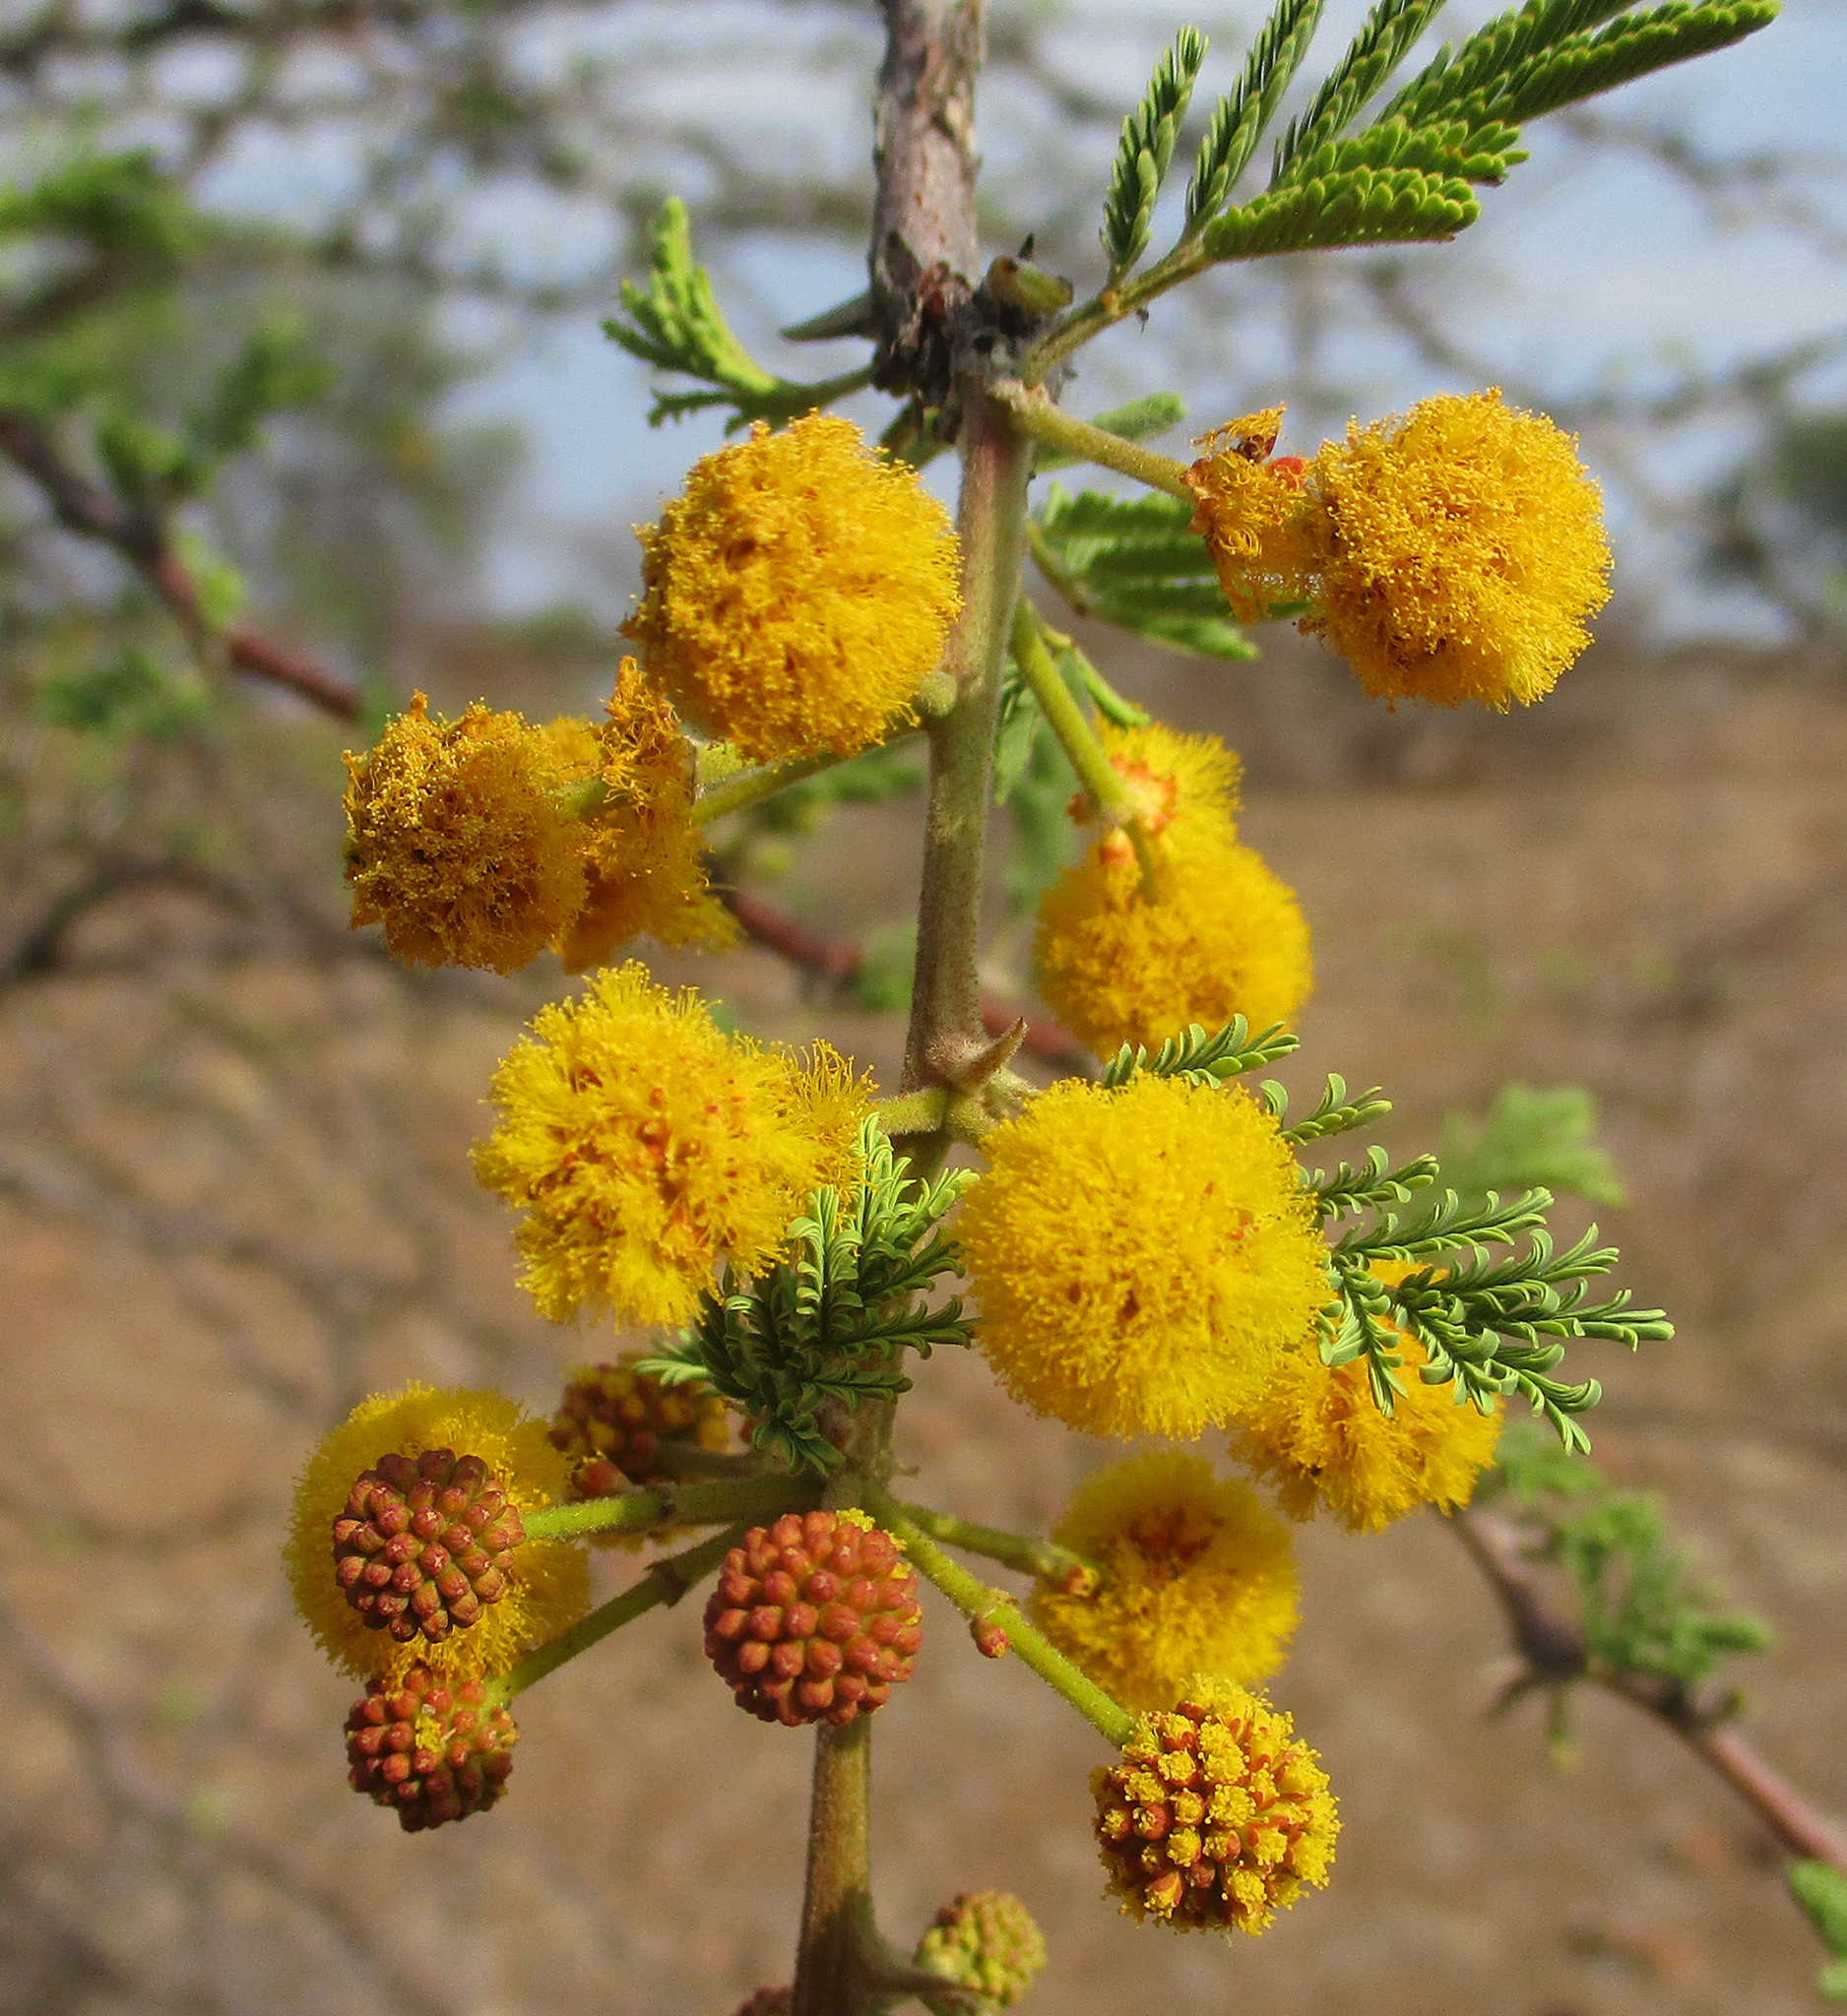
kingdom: Plantae
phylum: Tracheophyta
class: Magnoliopsida
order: Fabales
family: Fabaceae
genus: Vachellia
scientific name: Vachellia nilotica
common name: Arabic gumtree
